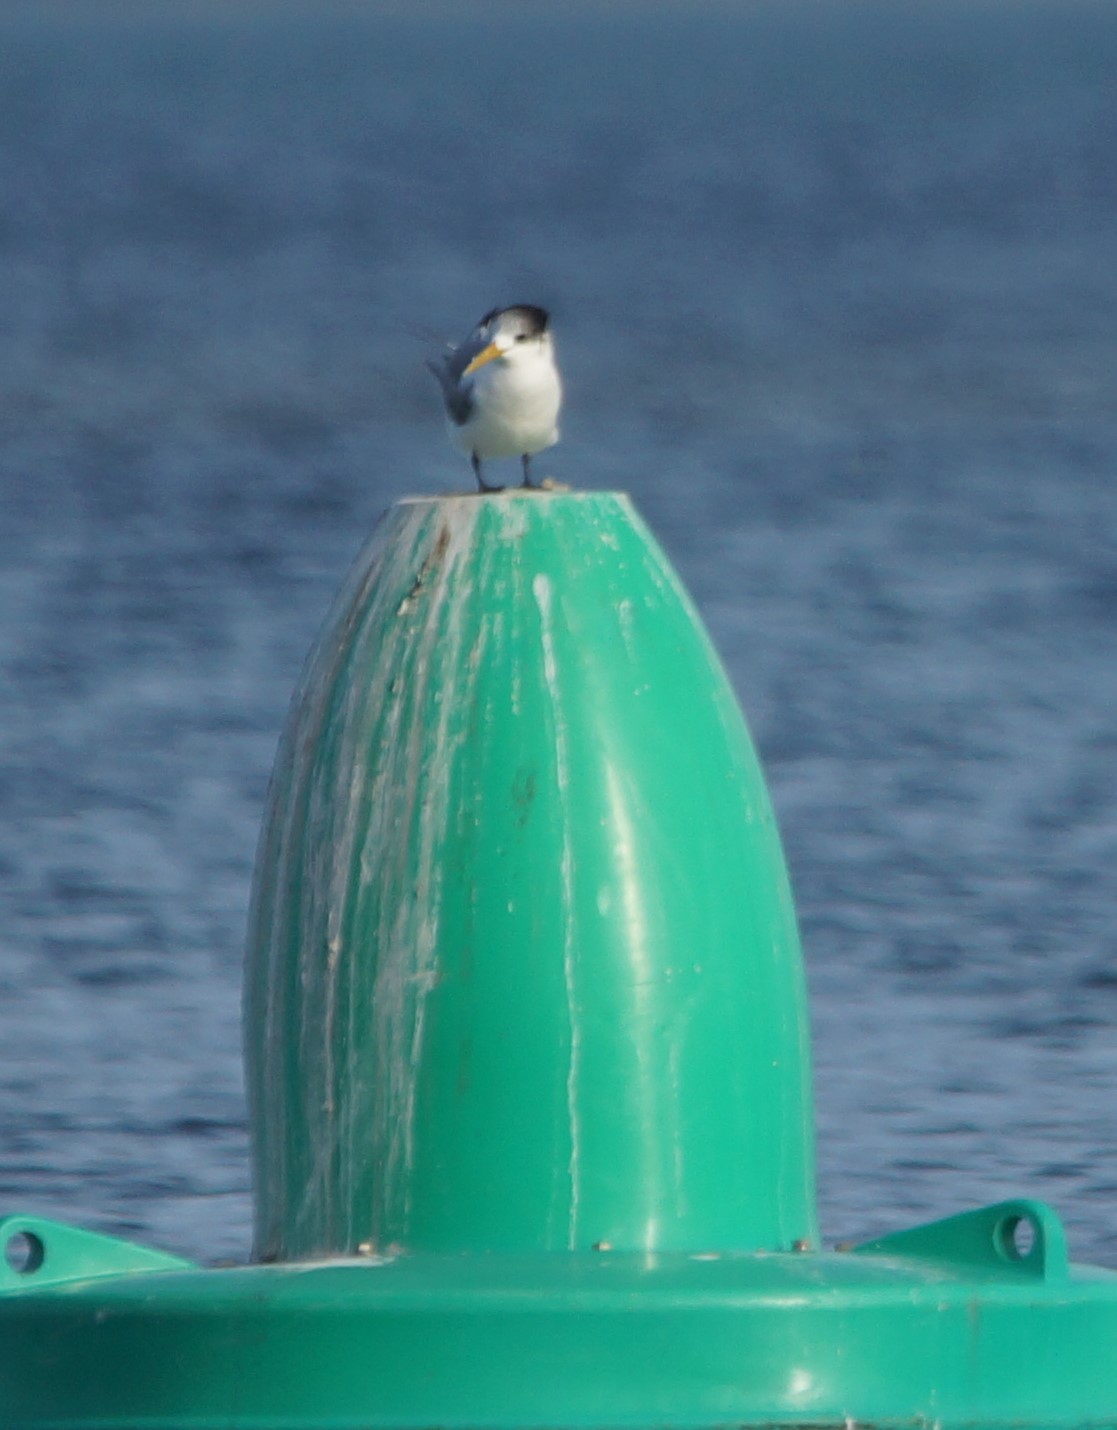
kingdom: Animalia
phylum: Chordata
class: Aves
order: Charadriiformes
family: Laridae
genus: Thalasseus
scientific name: Thalasseus bergii
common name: Greater crested tern
